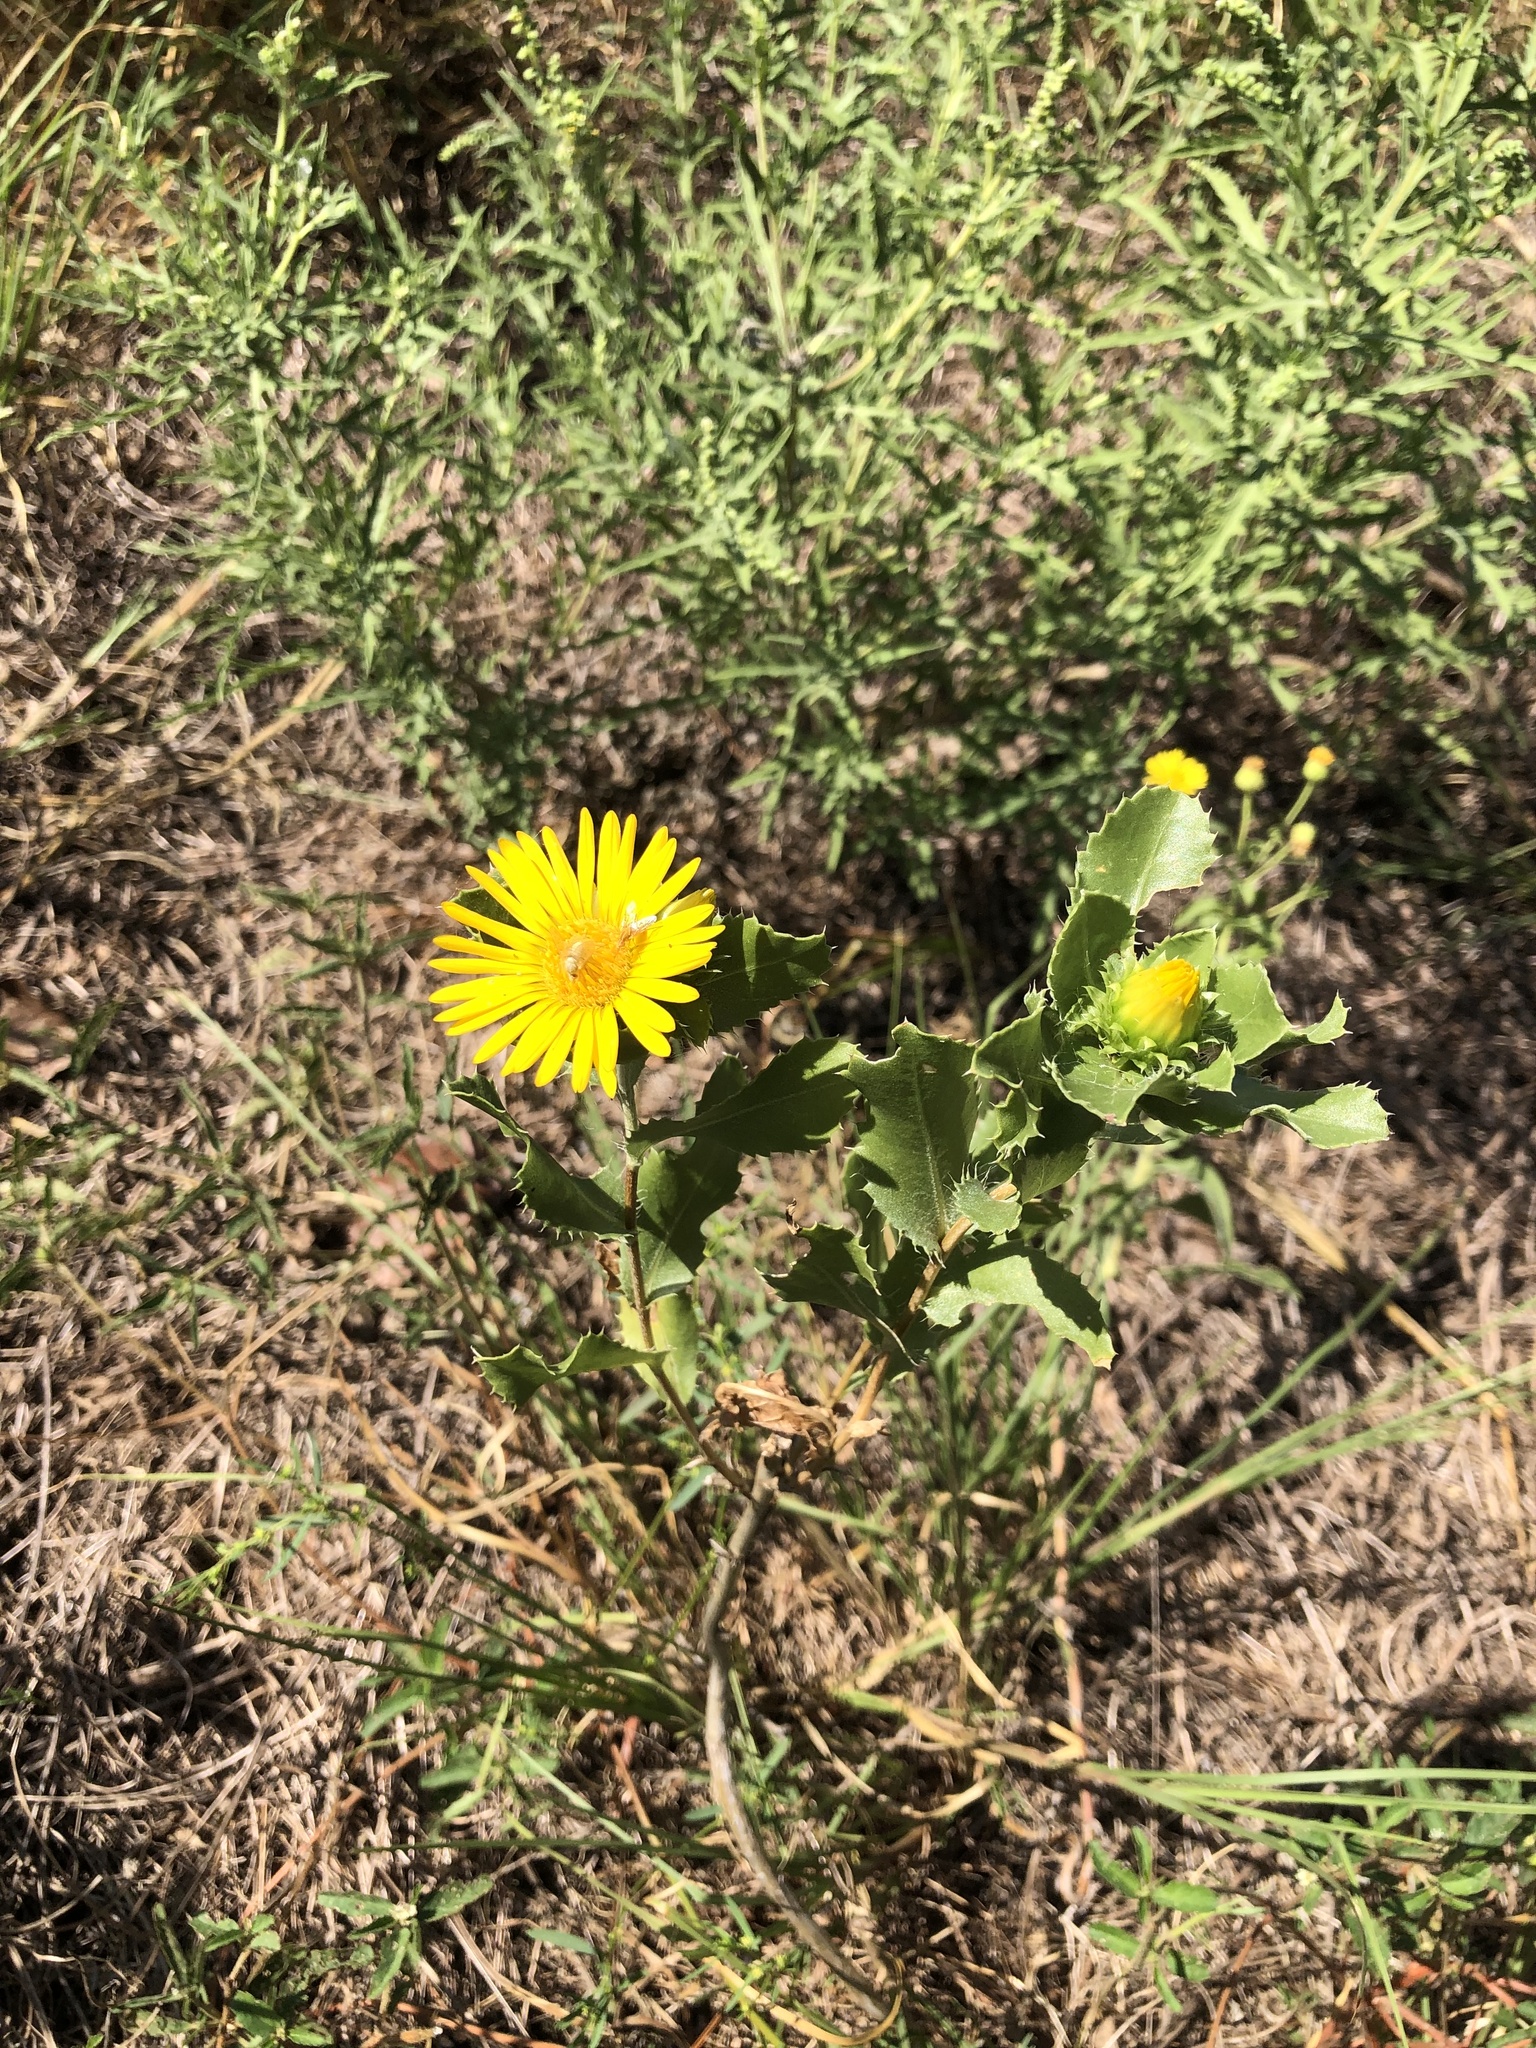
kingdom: Plantae
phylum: Tracheophyta
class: Magnoliopsida
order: Asterales
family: Asteraceae
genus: Grindelia
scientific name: Grindelia ciliata
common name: Goldenweed
